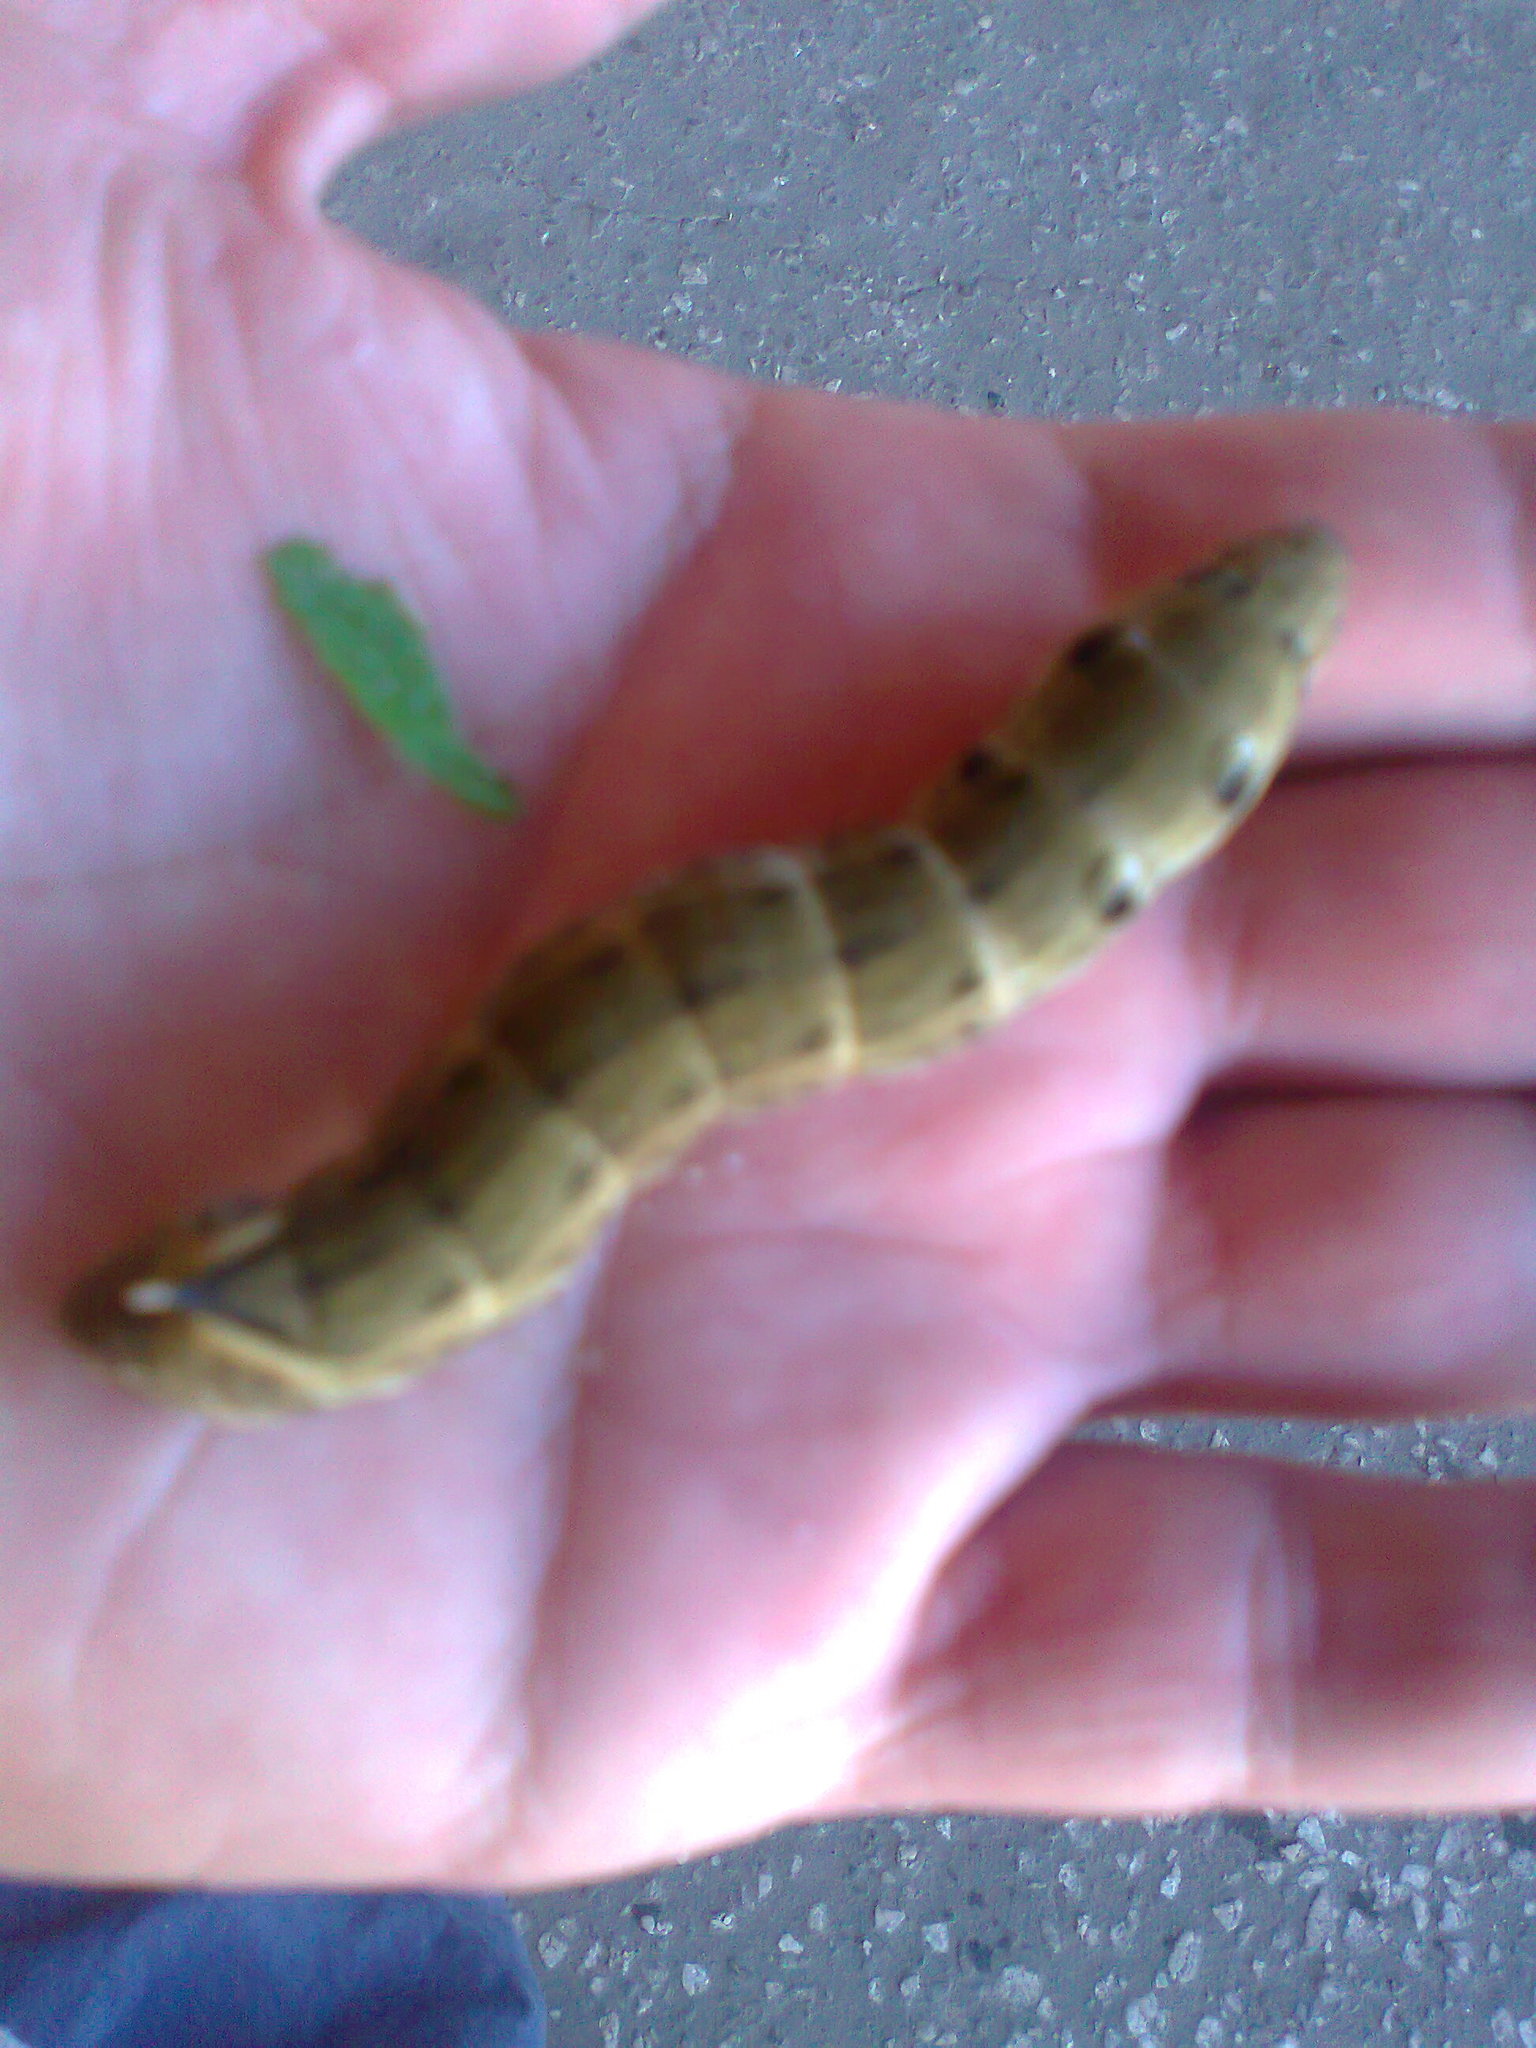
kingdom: Animalia
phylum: Arthropoda
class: Insecta
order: Lepidoptera
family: Sphingidae
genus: Deilephila
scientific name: Deilephila elpenor
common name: Elephant hawk-moth
